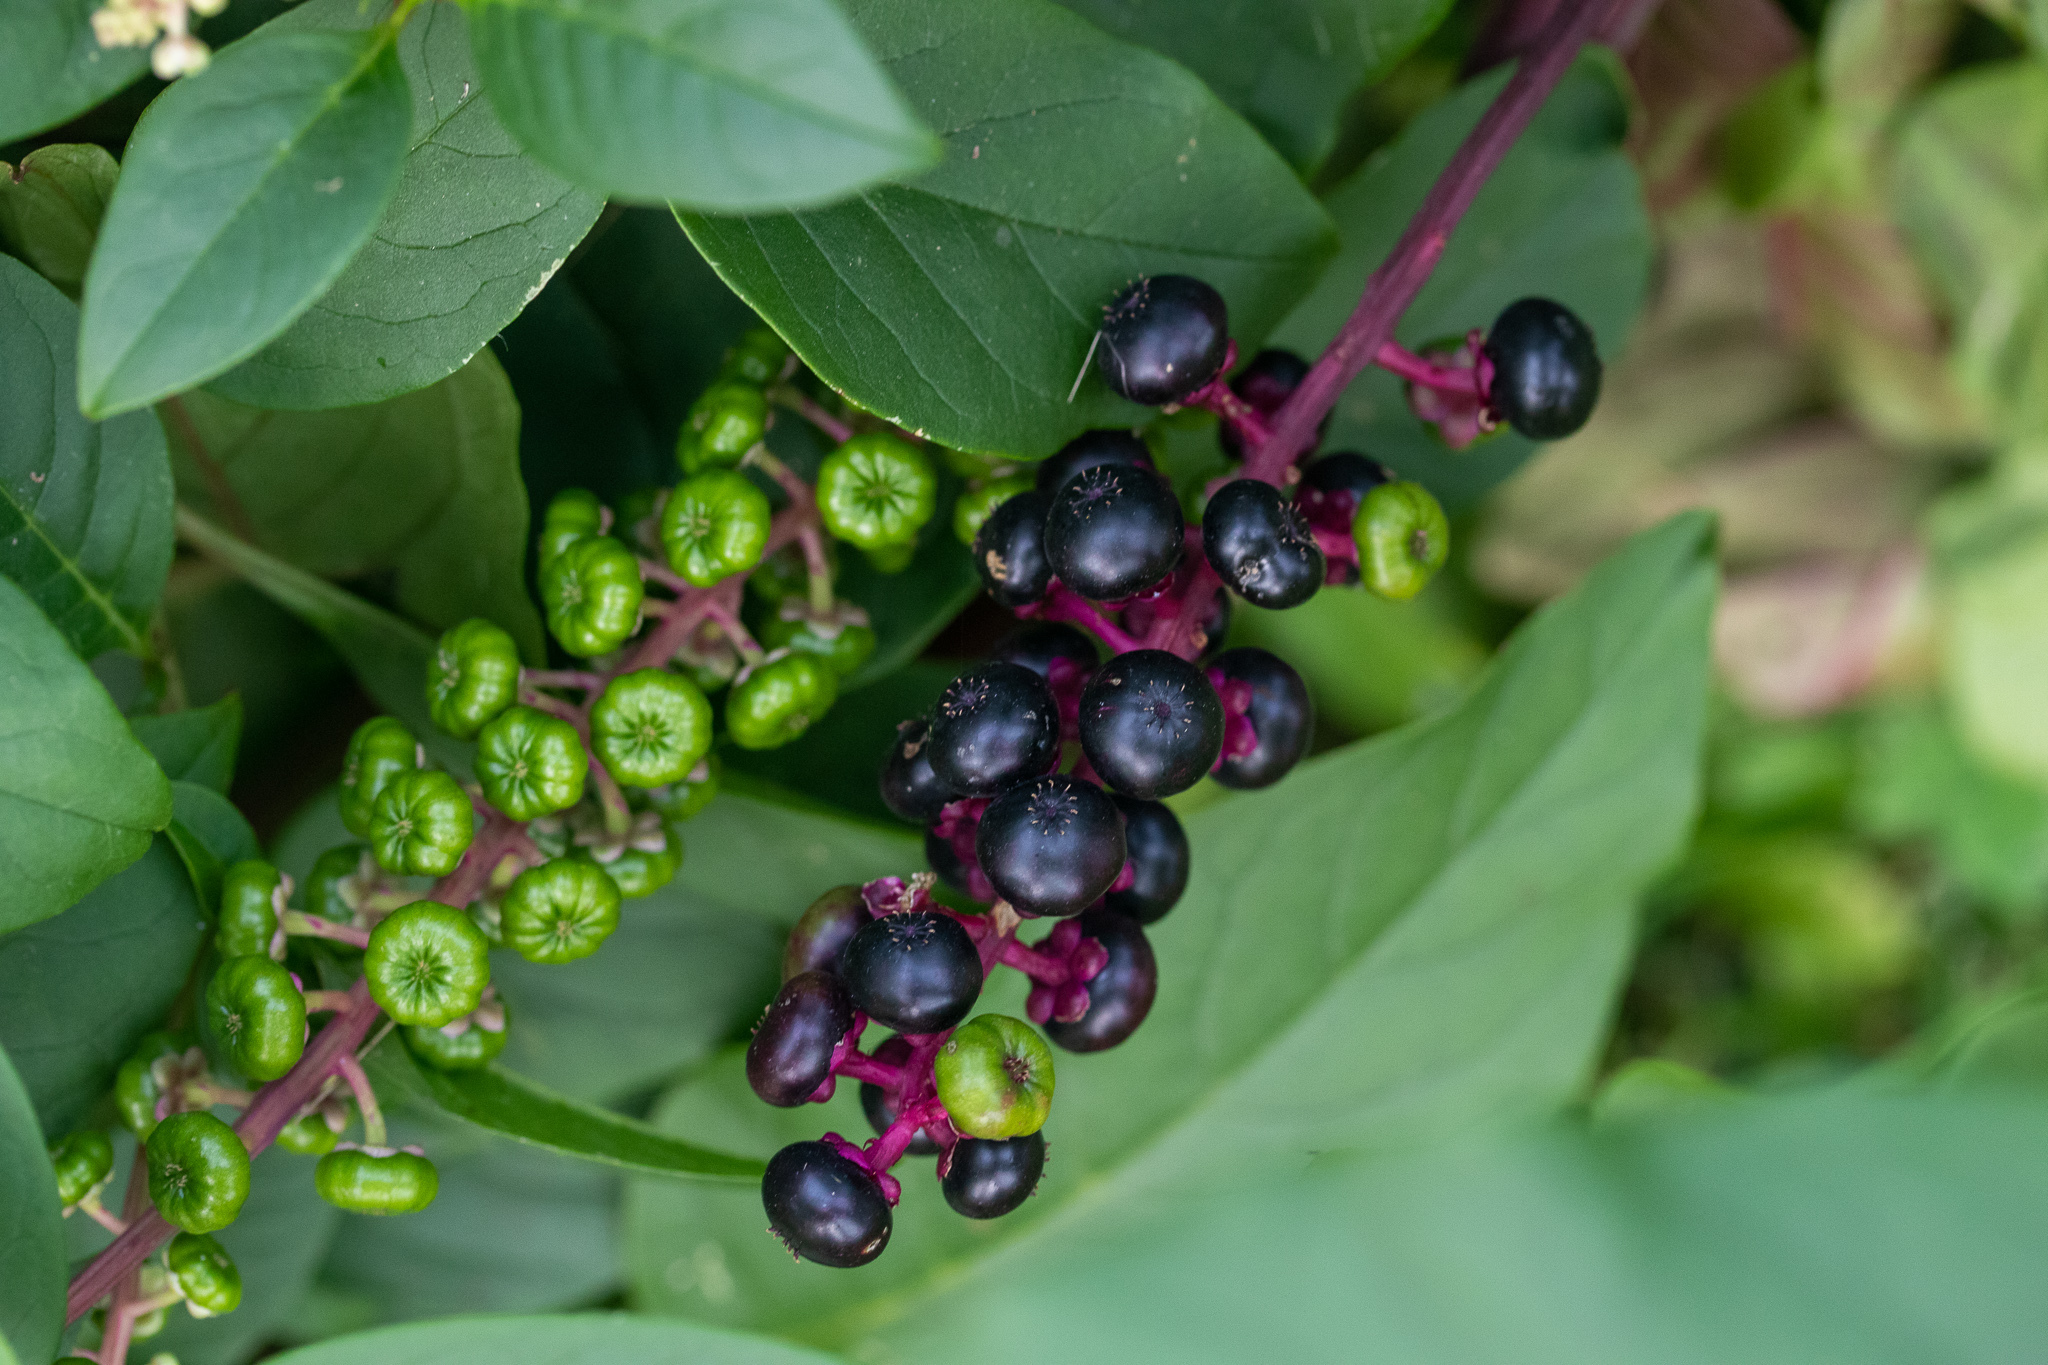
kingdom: Plantae
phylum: Tracheophyta
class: Magnoliopsida
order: Caryophyllales
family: Phytolaccaceae
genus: Phytolacca
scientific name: Phytolacca americana
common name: American pokeweed
